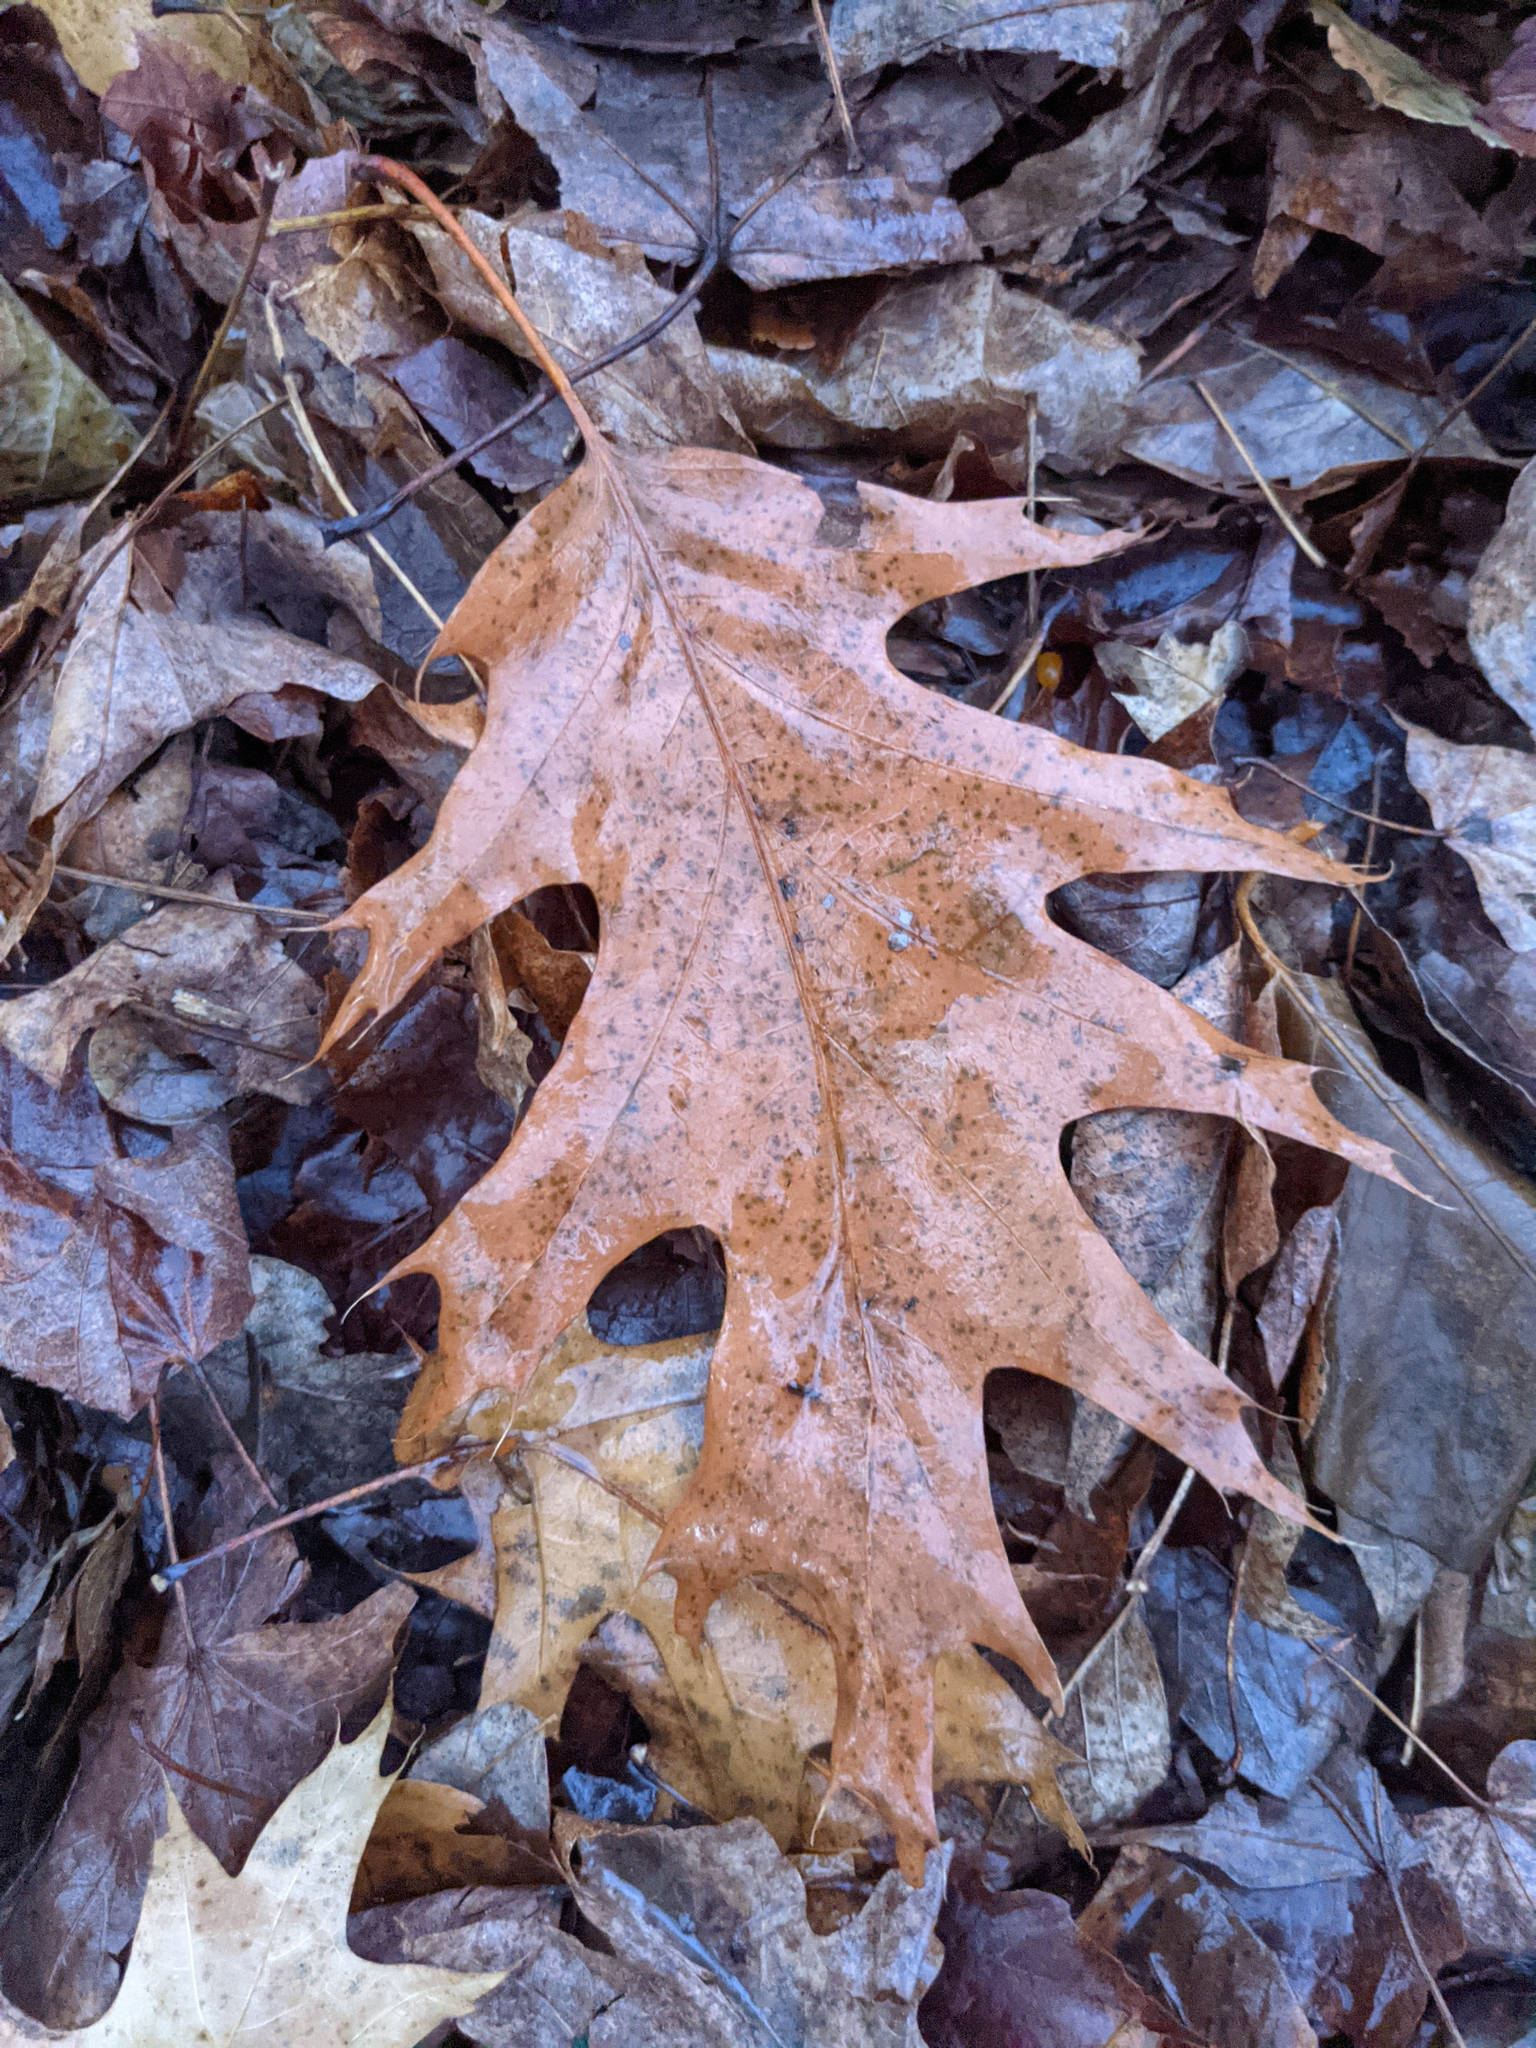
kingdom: Plantae
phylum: Tracheophyta
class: Magnoliopsida
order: Fagales
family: Fagaceae
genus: Quercus
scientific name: Quercus rubra
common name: Red oak
